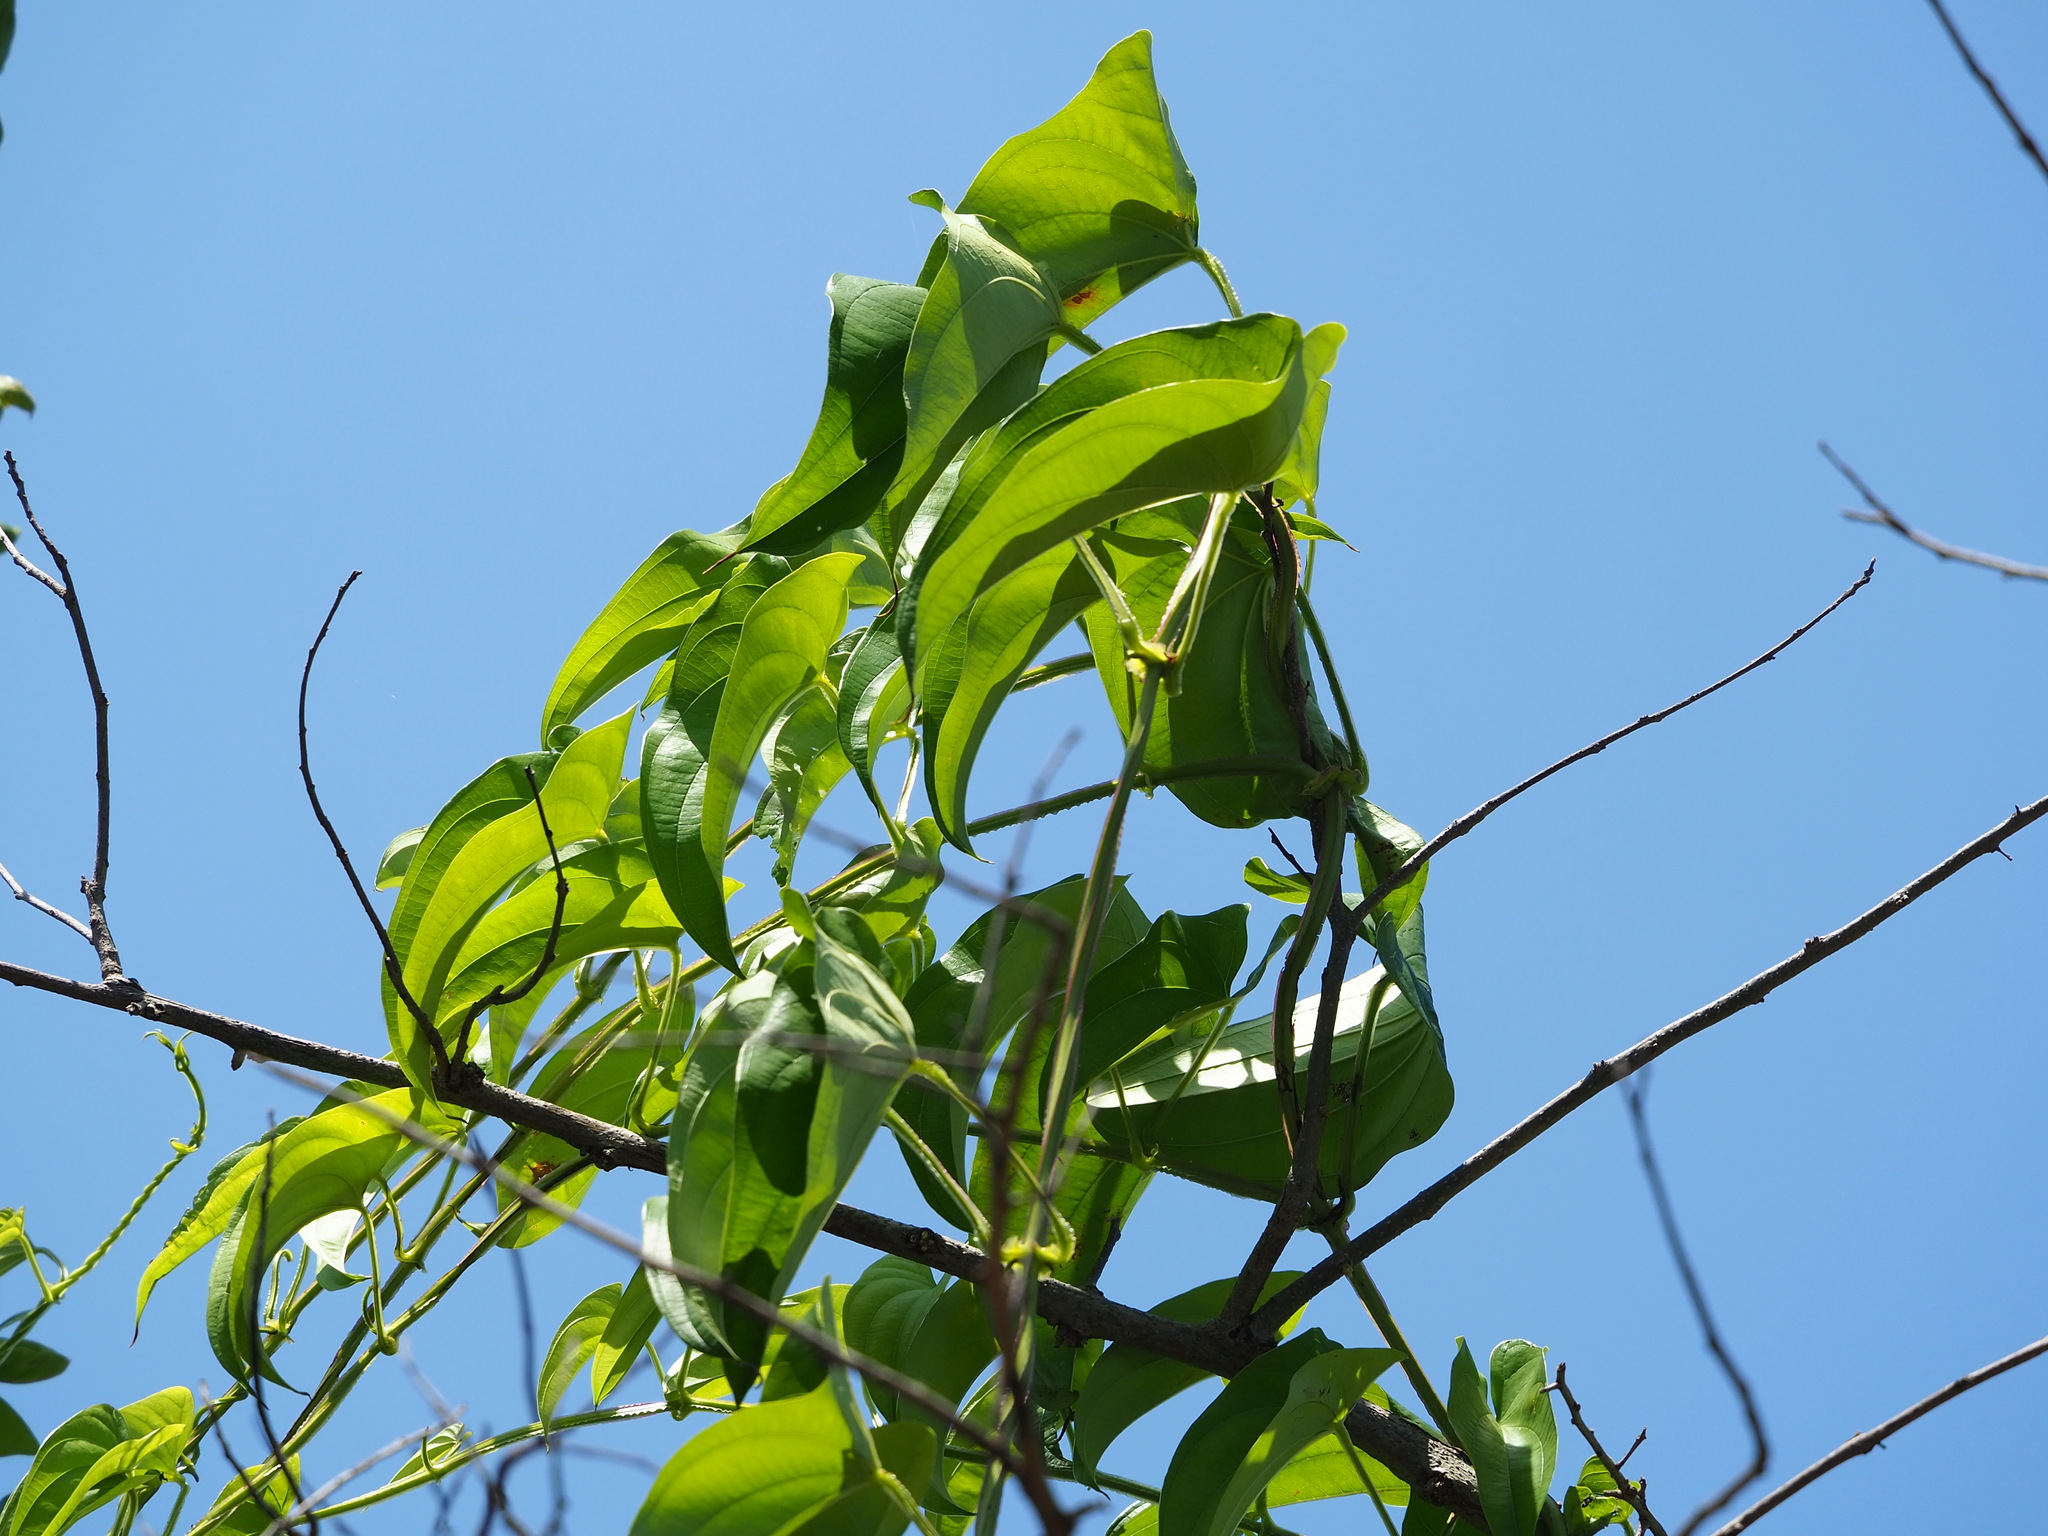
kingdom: Plantae
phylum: Tracheophyta
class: Liliopsida
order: Dioscoreales
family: Dioscoreaceae
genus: Dioscorea
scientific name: Dioscorea alata
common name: Water yam
